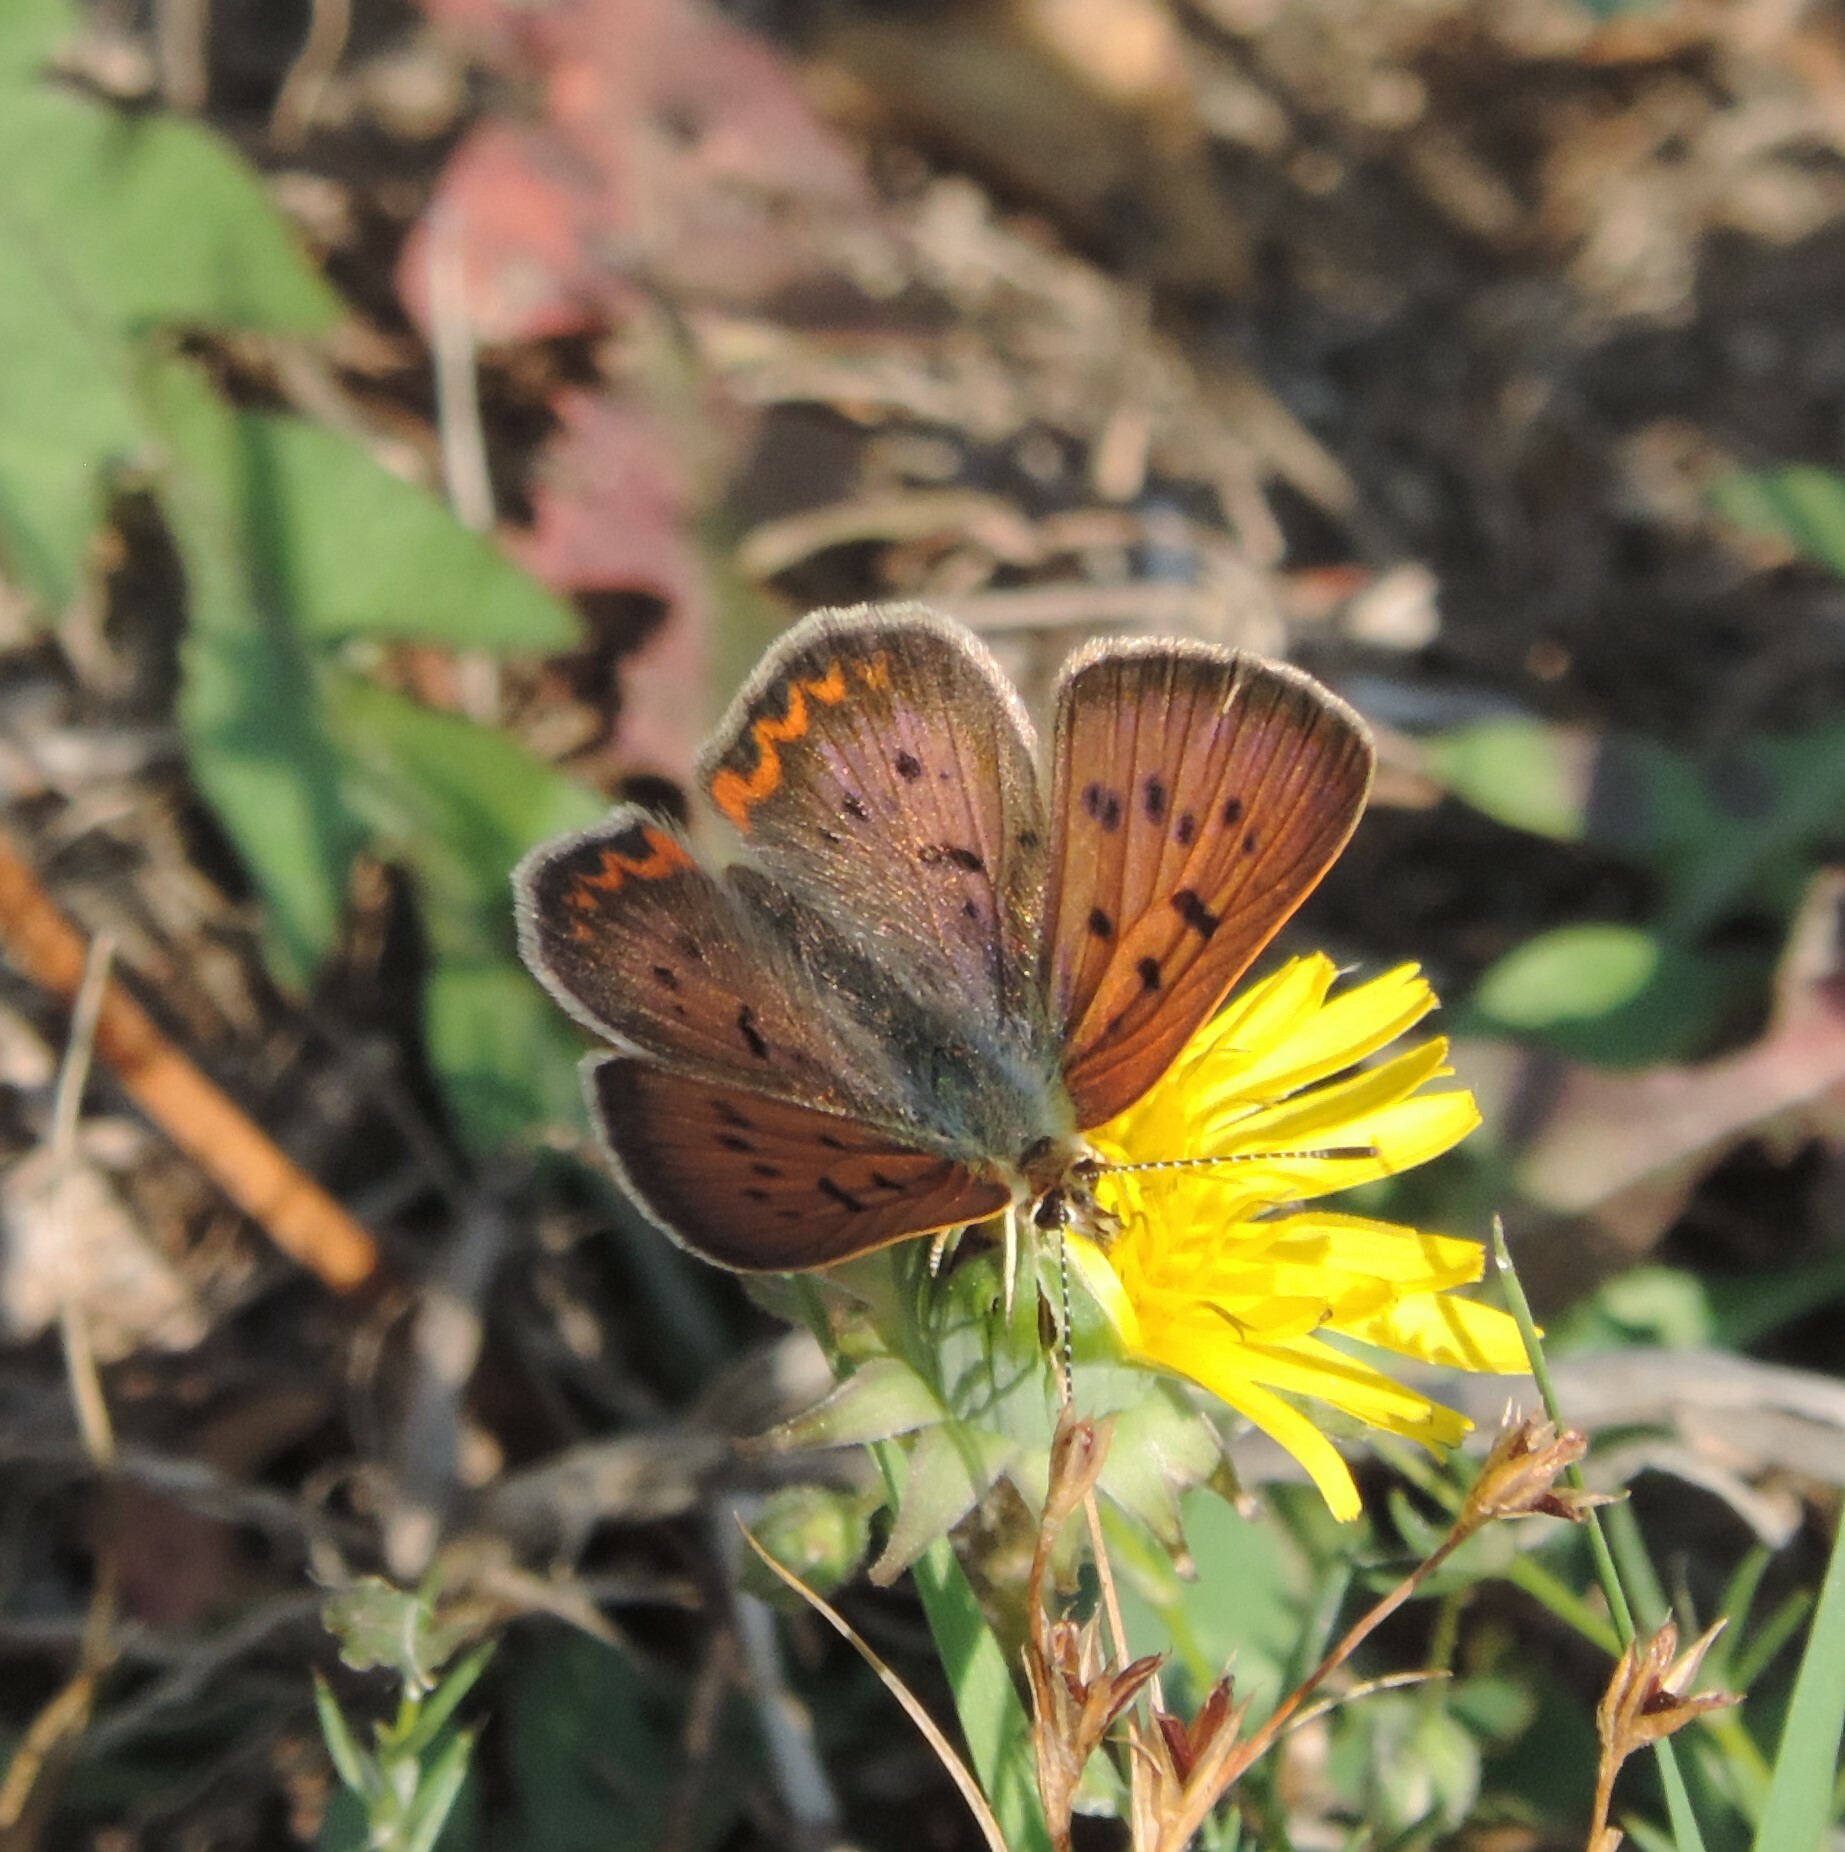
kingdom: Animalia
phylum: Arthropoda
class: Insecta
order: Lepidoptera
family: Lycaenidae
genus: Tharsalea
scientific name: Tharsalea helloides
